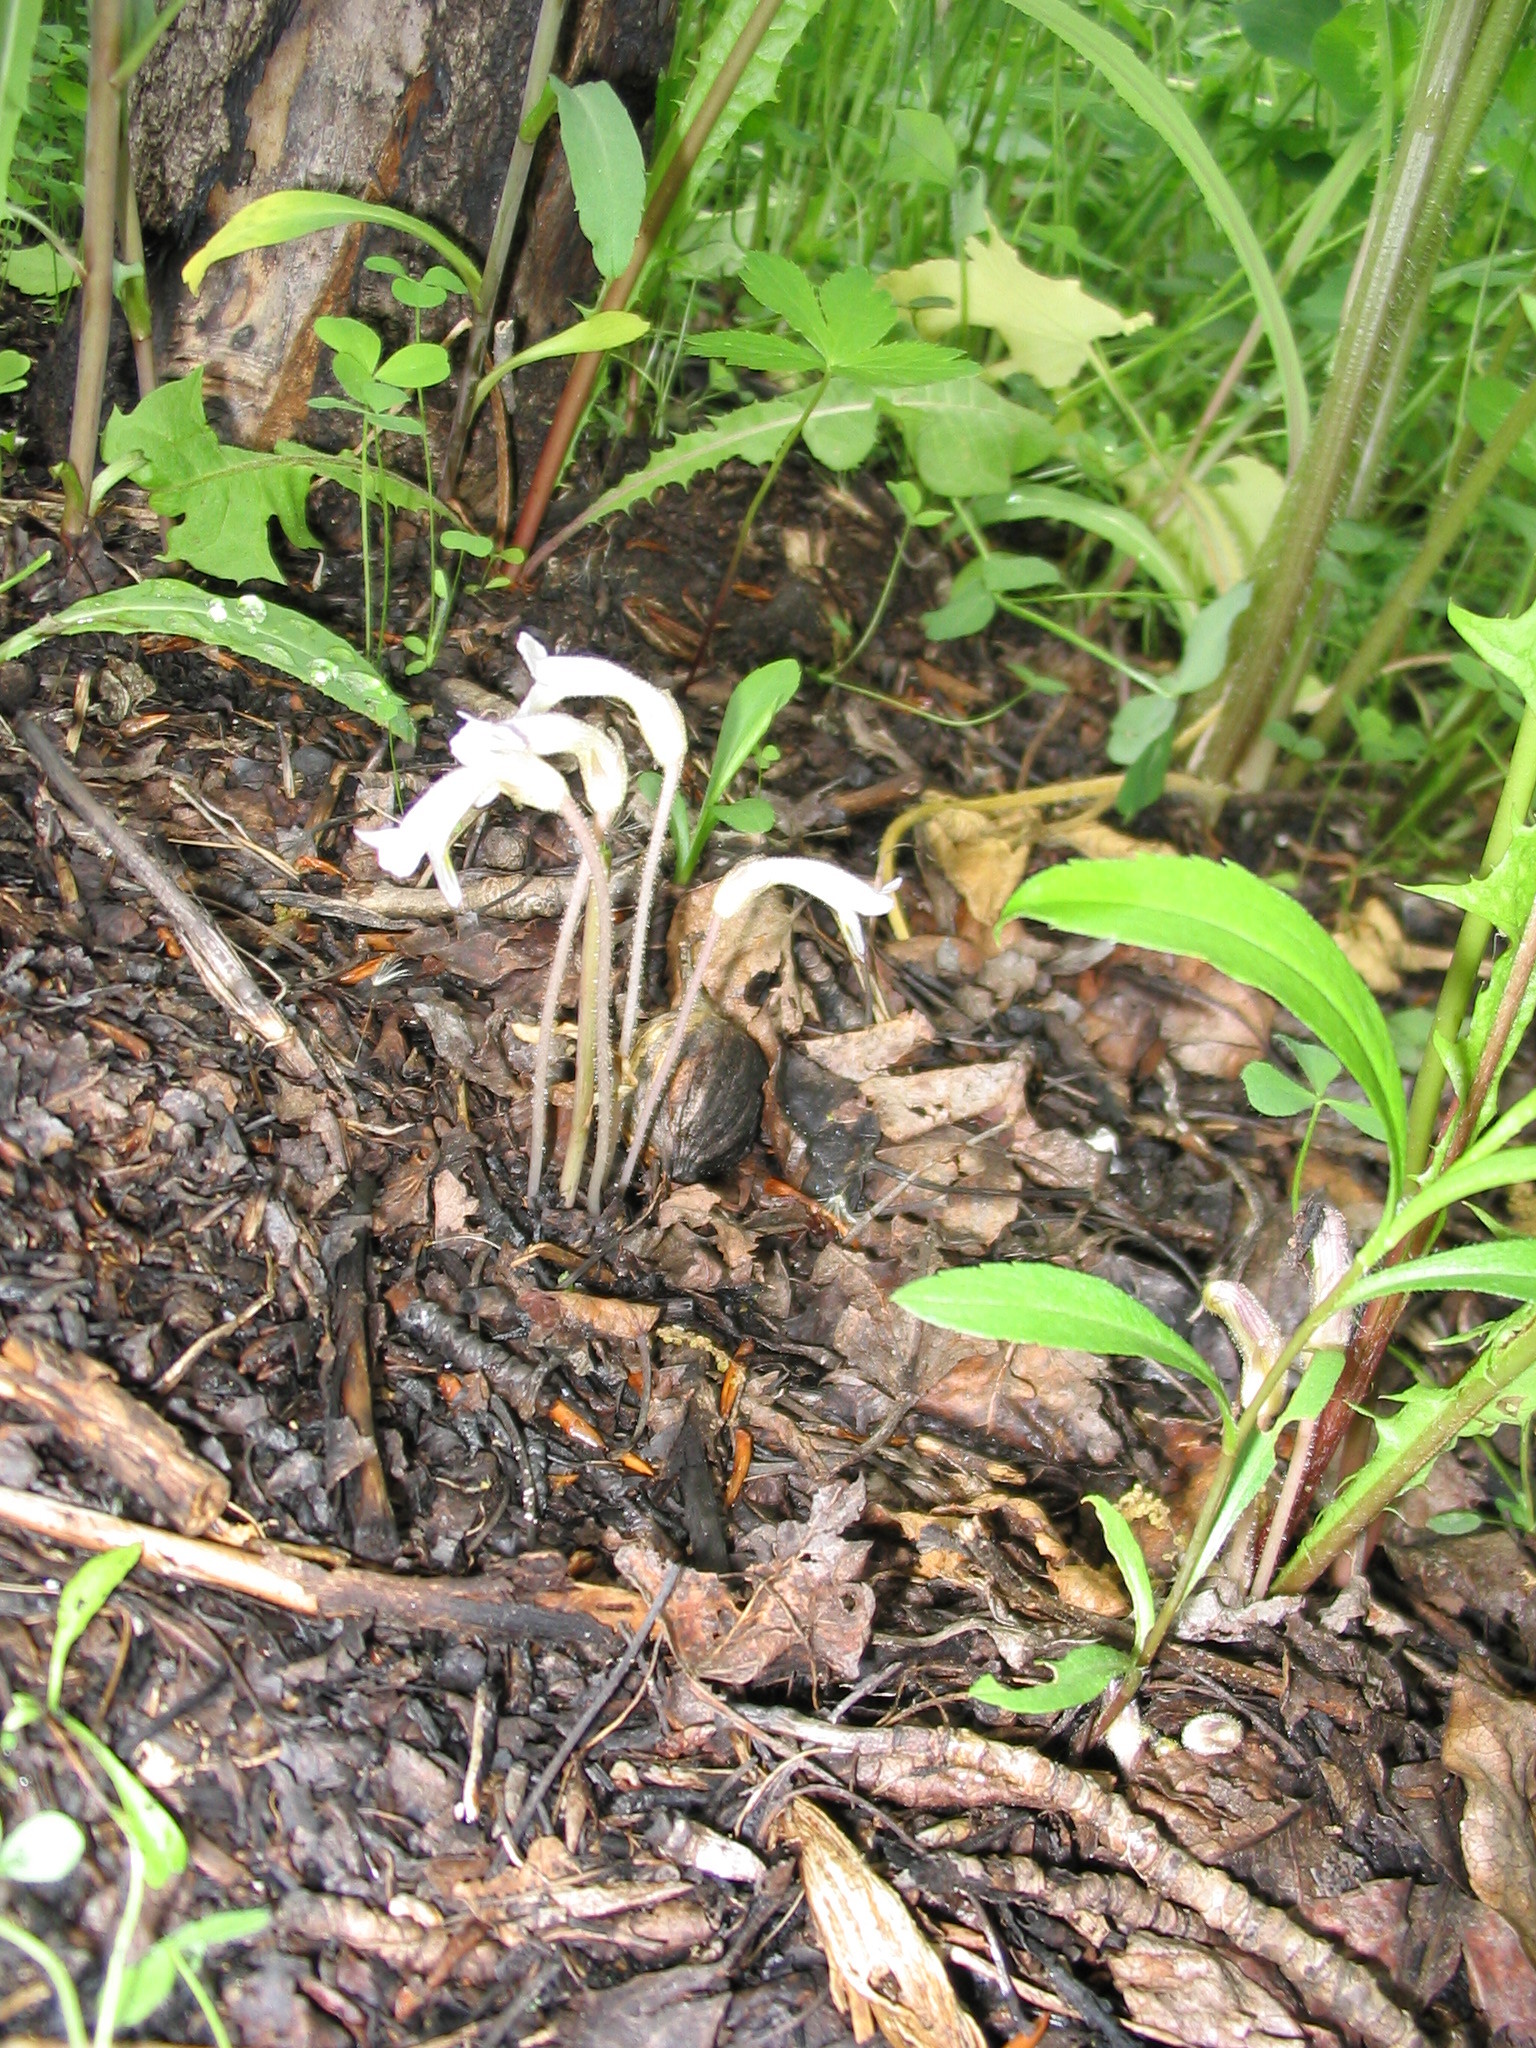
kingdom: Plantae
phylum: Tracheophyta
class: Magnoliopsida
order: Lamiales
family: Orobanchaceae
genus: Aphyllon
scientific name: Aphyllon uniflorum
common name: One-flowered broomrape
